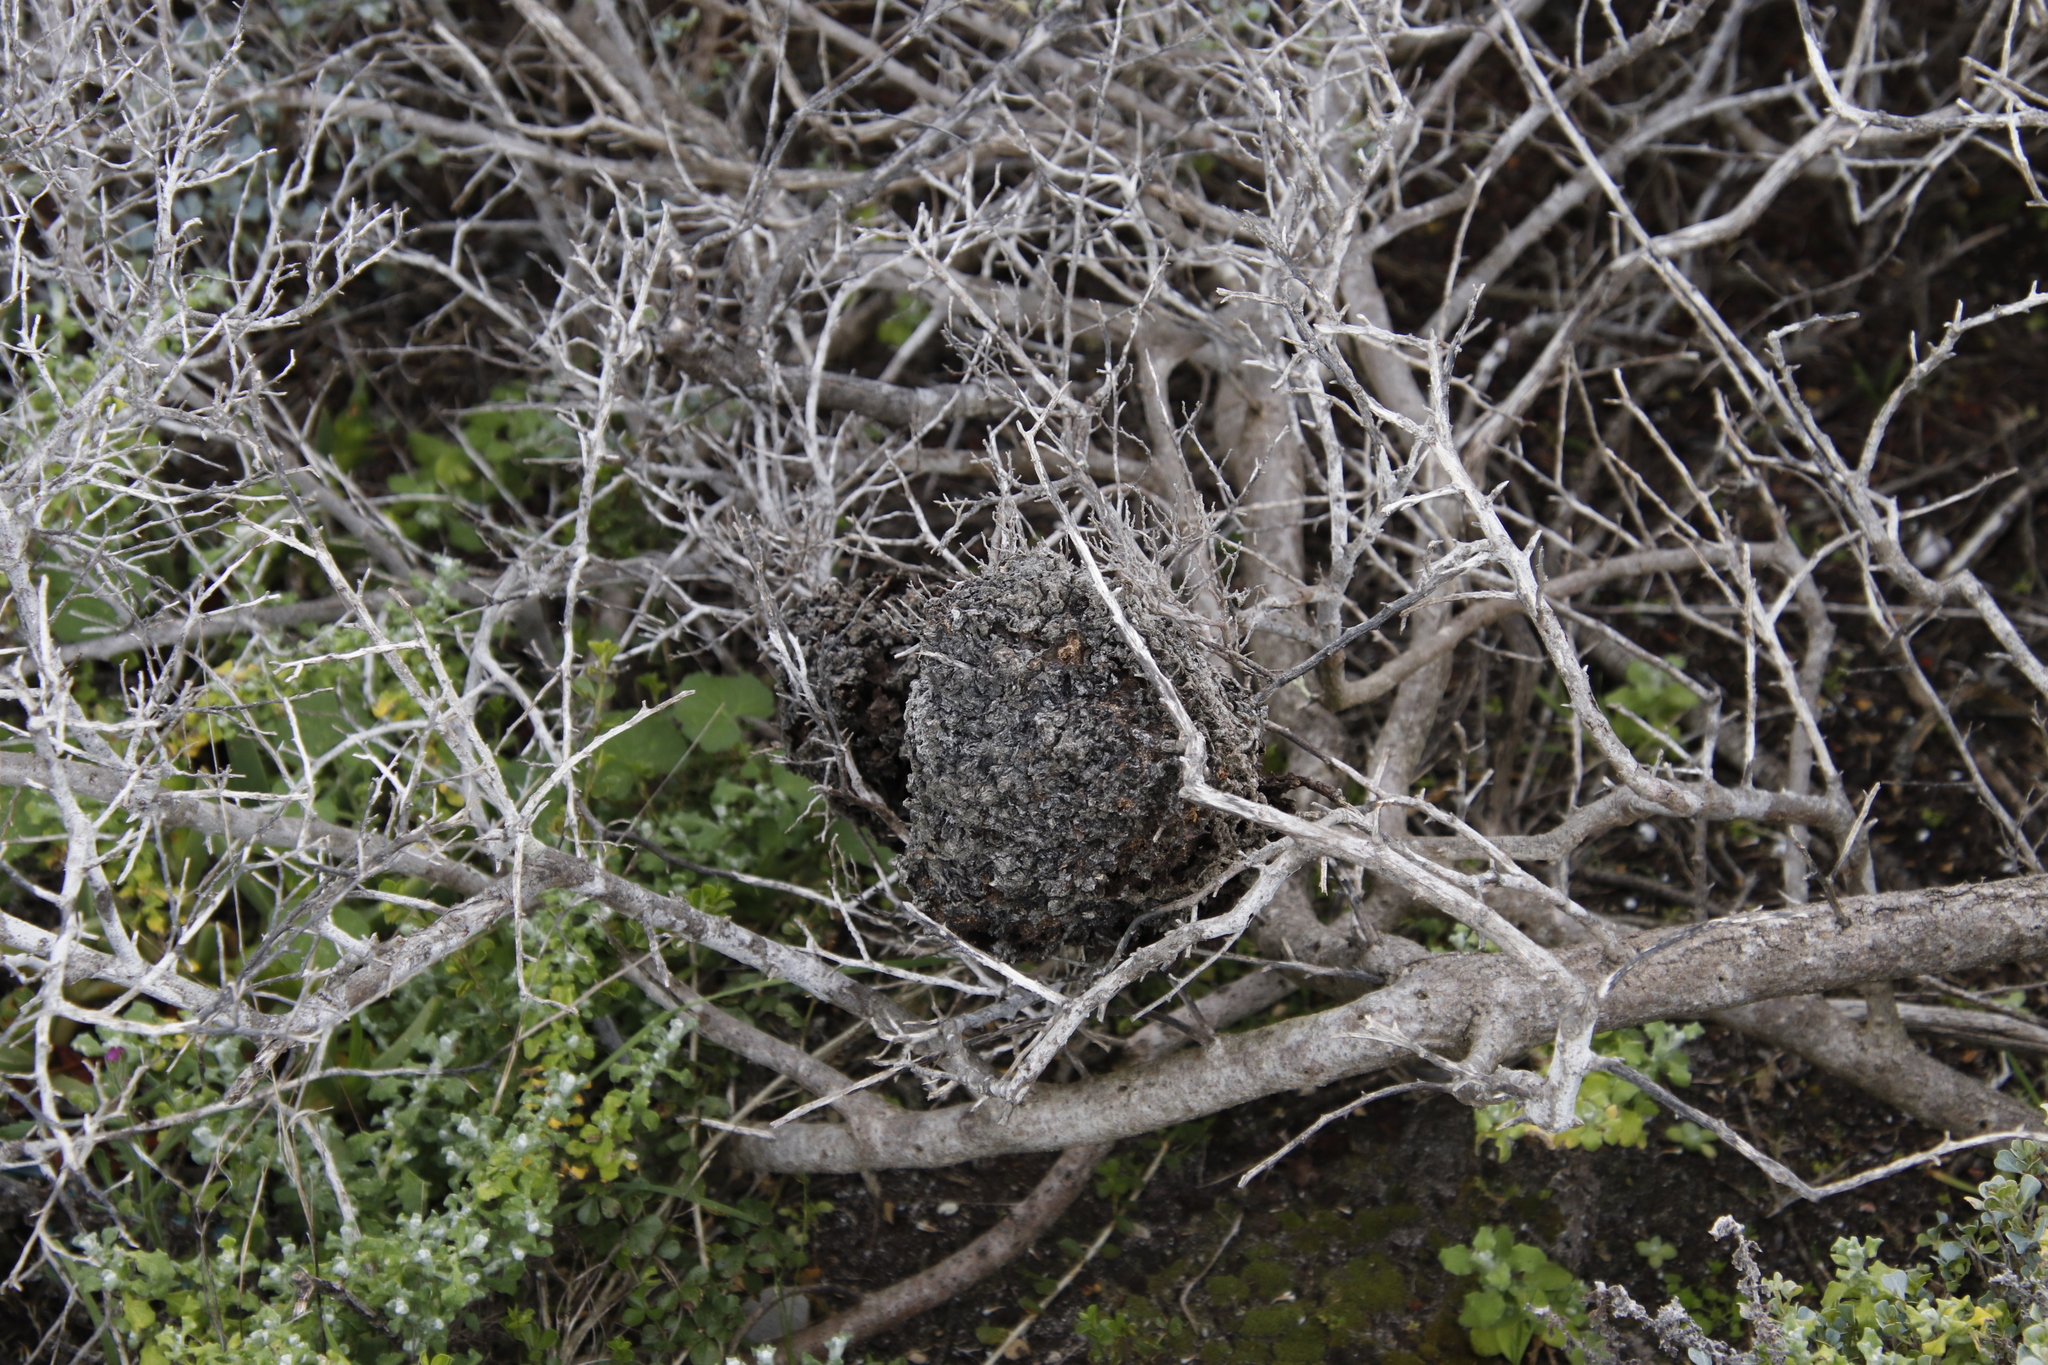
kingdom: Animalia
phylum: Arthropoda
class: Insecta
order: Hymenoptera
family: Formicidae
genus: Crematogaster
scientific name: Crematogaster peringueyi
